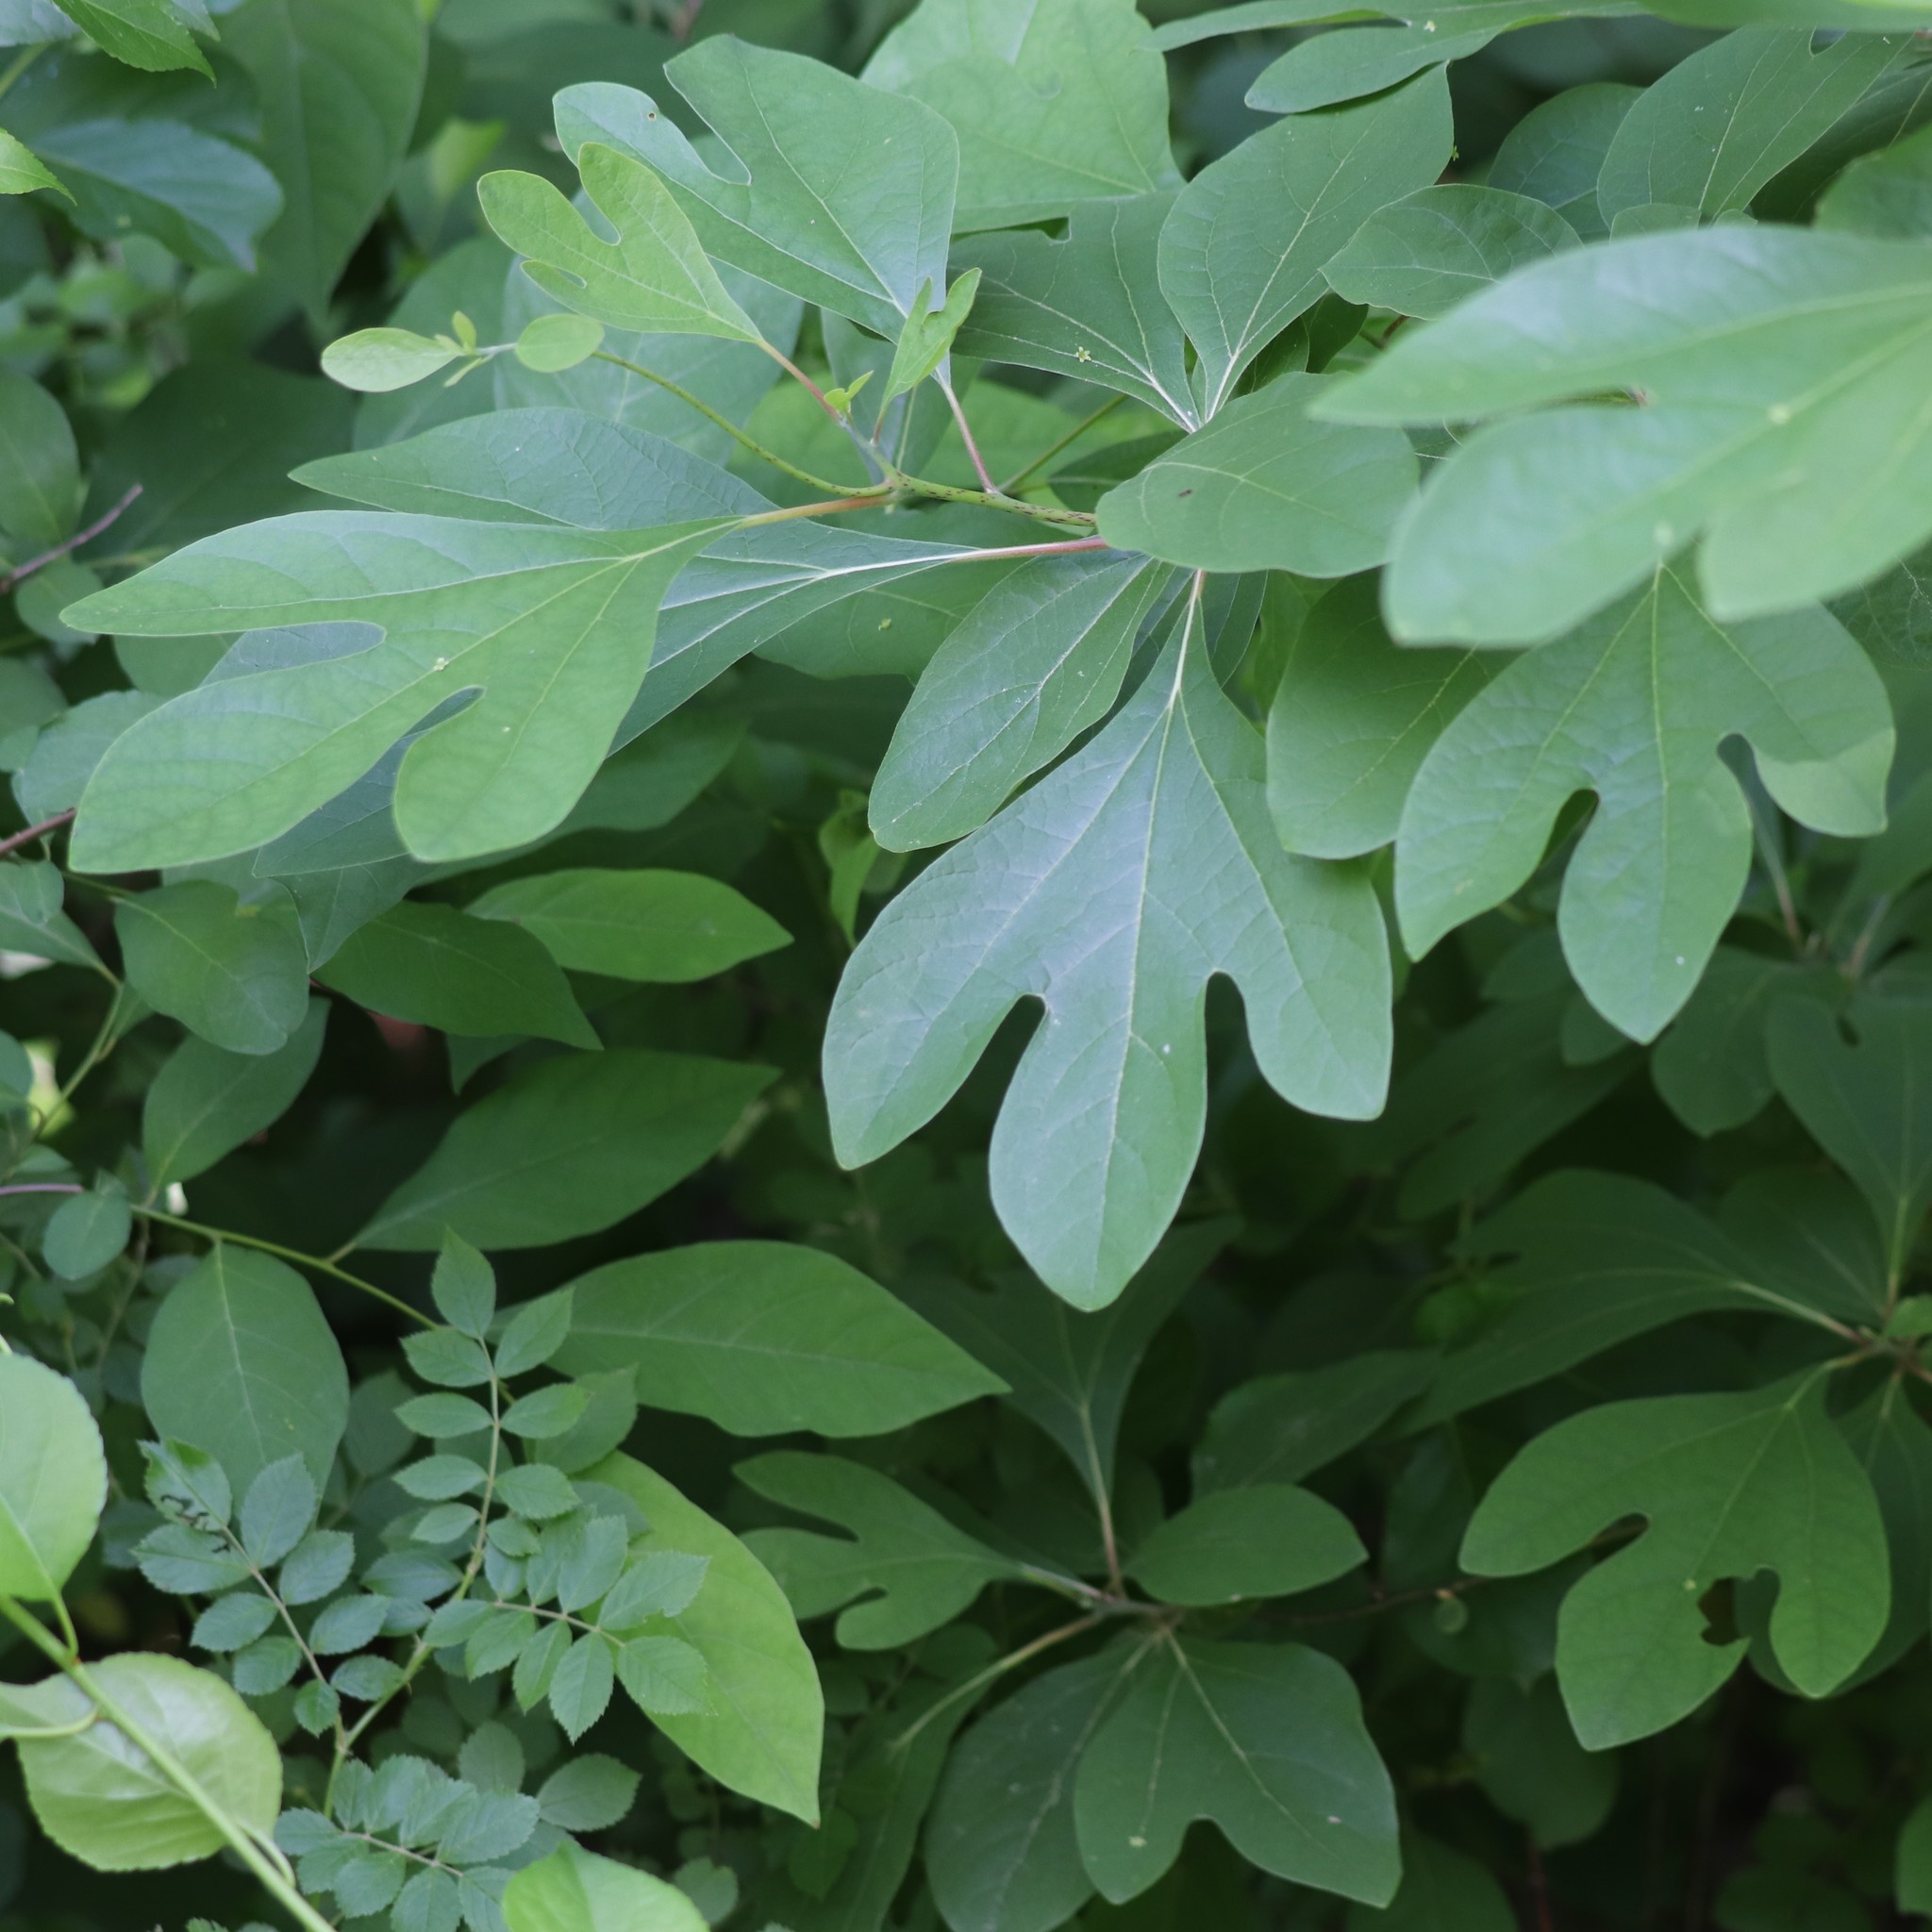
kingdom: Plantae
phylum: Tracheophyta
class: Magnoliopsida
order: Laurales
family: Lauraceae
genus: Sassafras
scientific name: Sassafras albidum
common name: Sassafras
